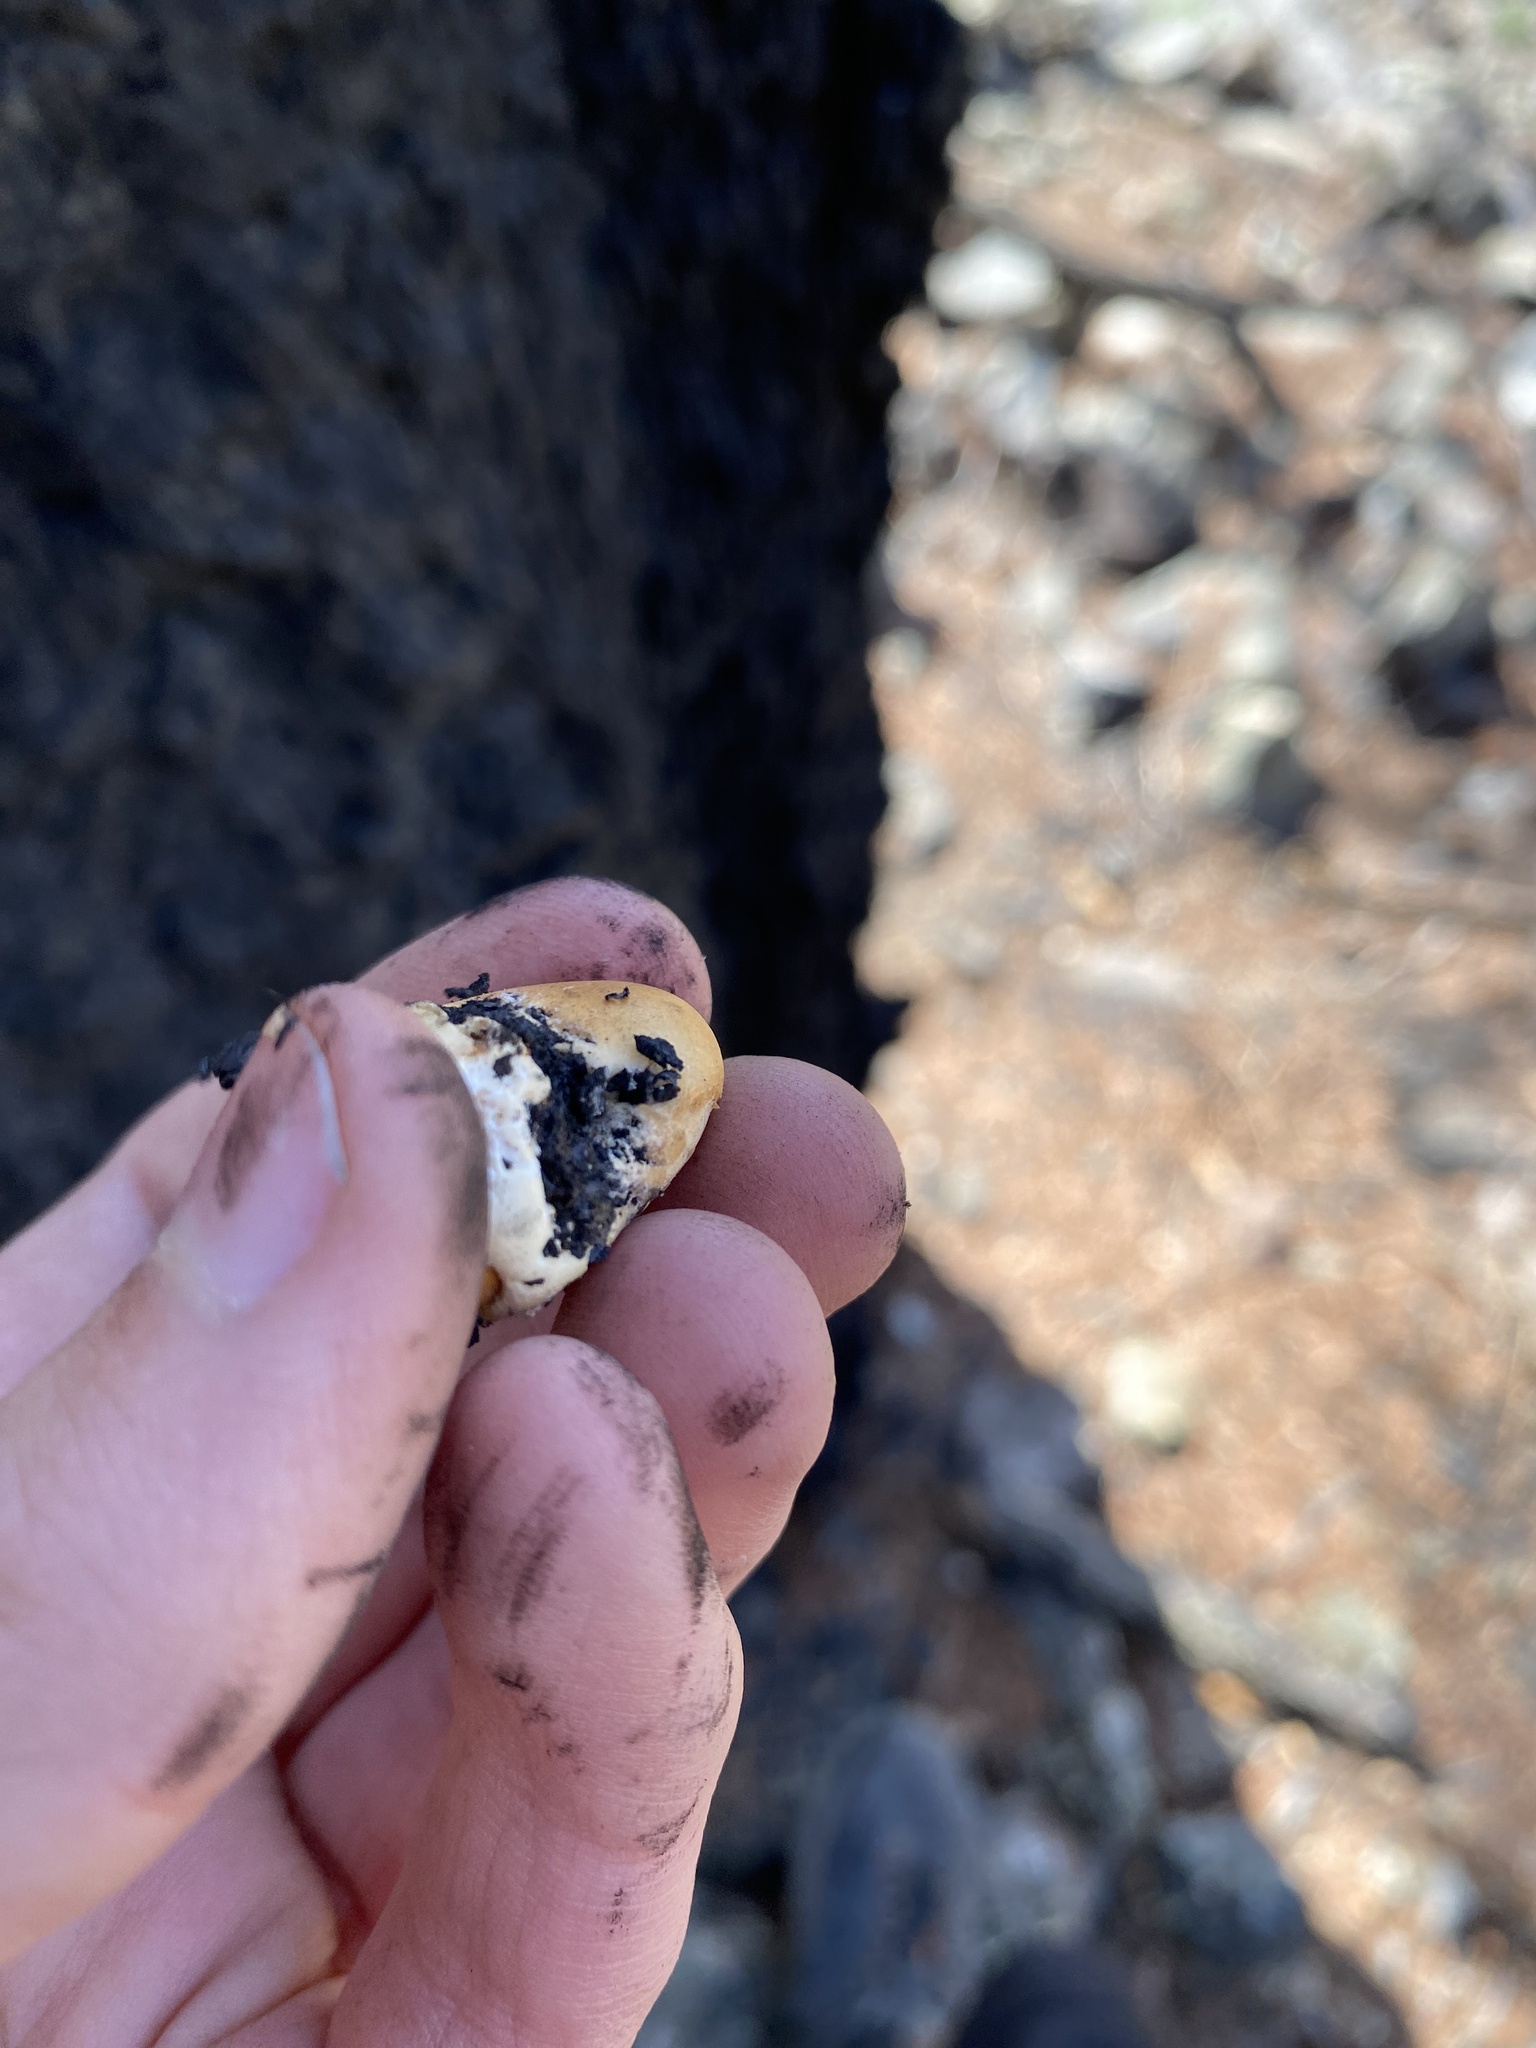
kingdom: Fungi
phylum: Basidiomycota
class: Agaricomycetes
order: Polyporales
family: Polyporaceae
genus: Cryptoporus
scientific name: Cryptoporus volvatus
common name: Veiled polypore
